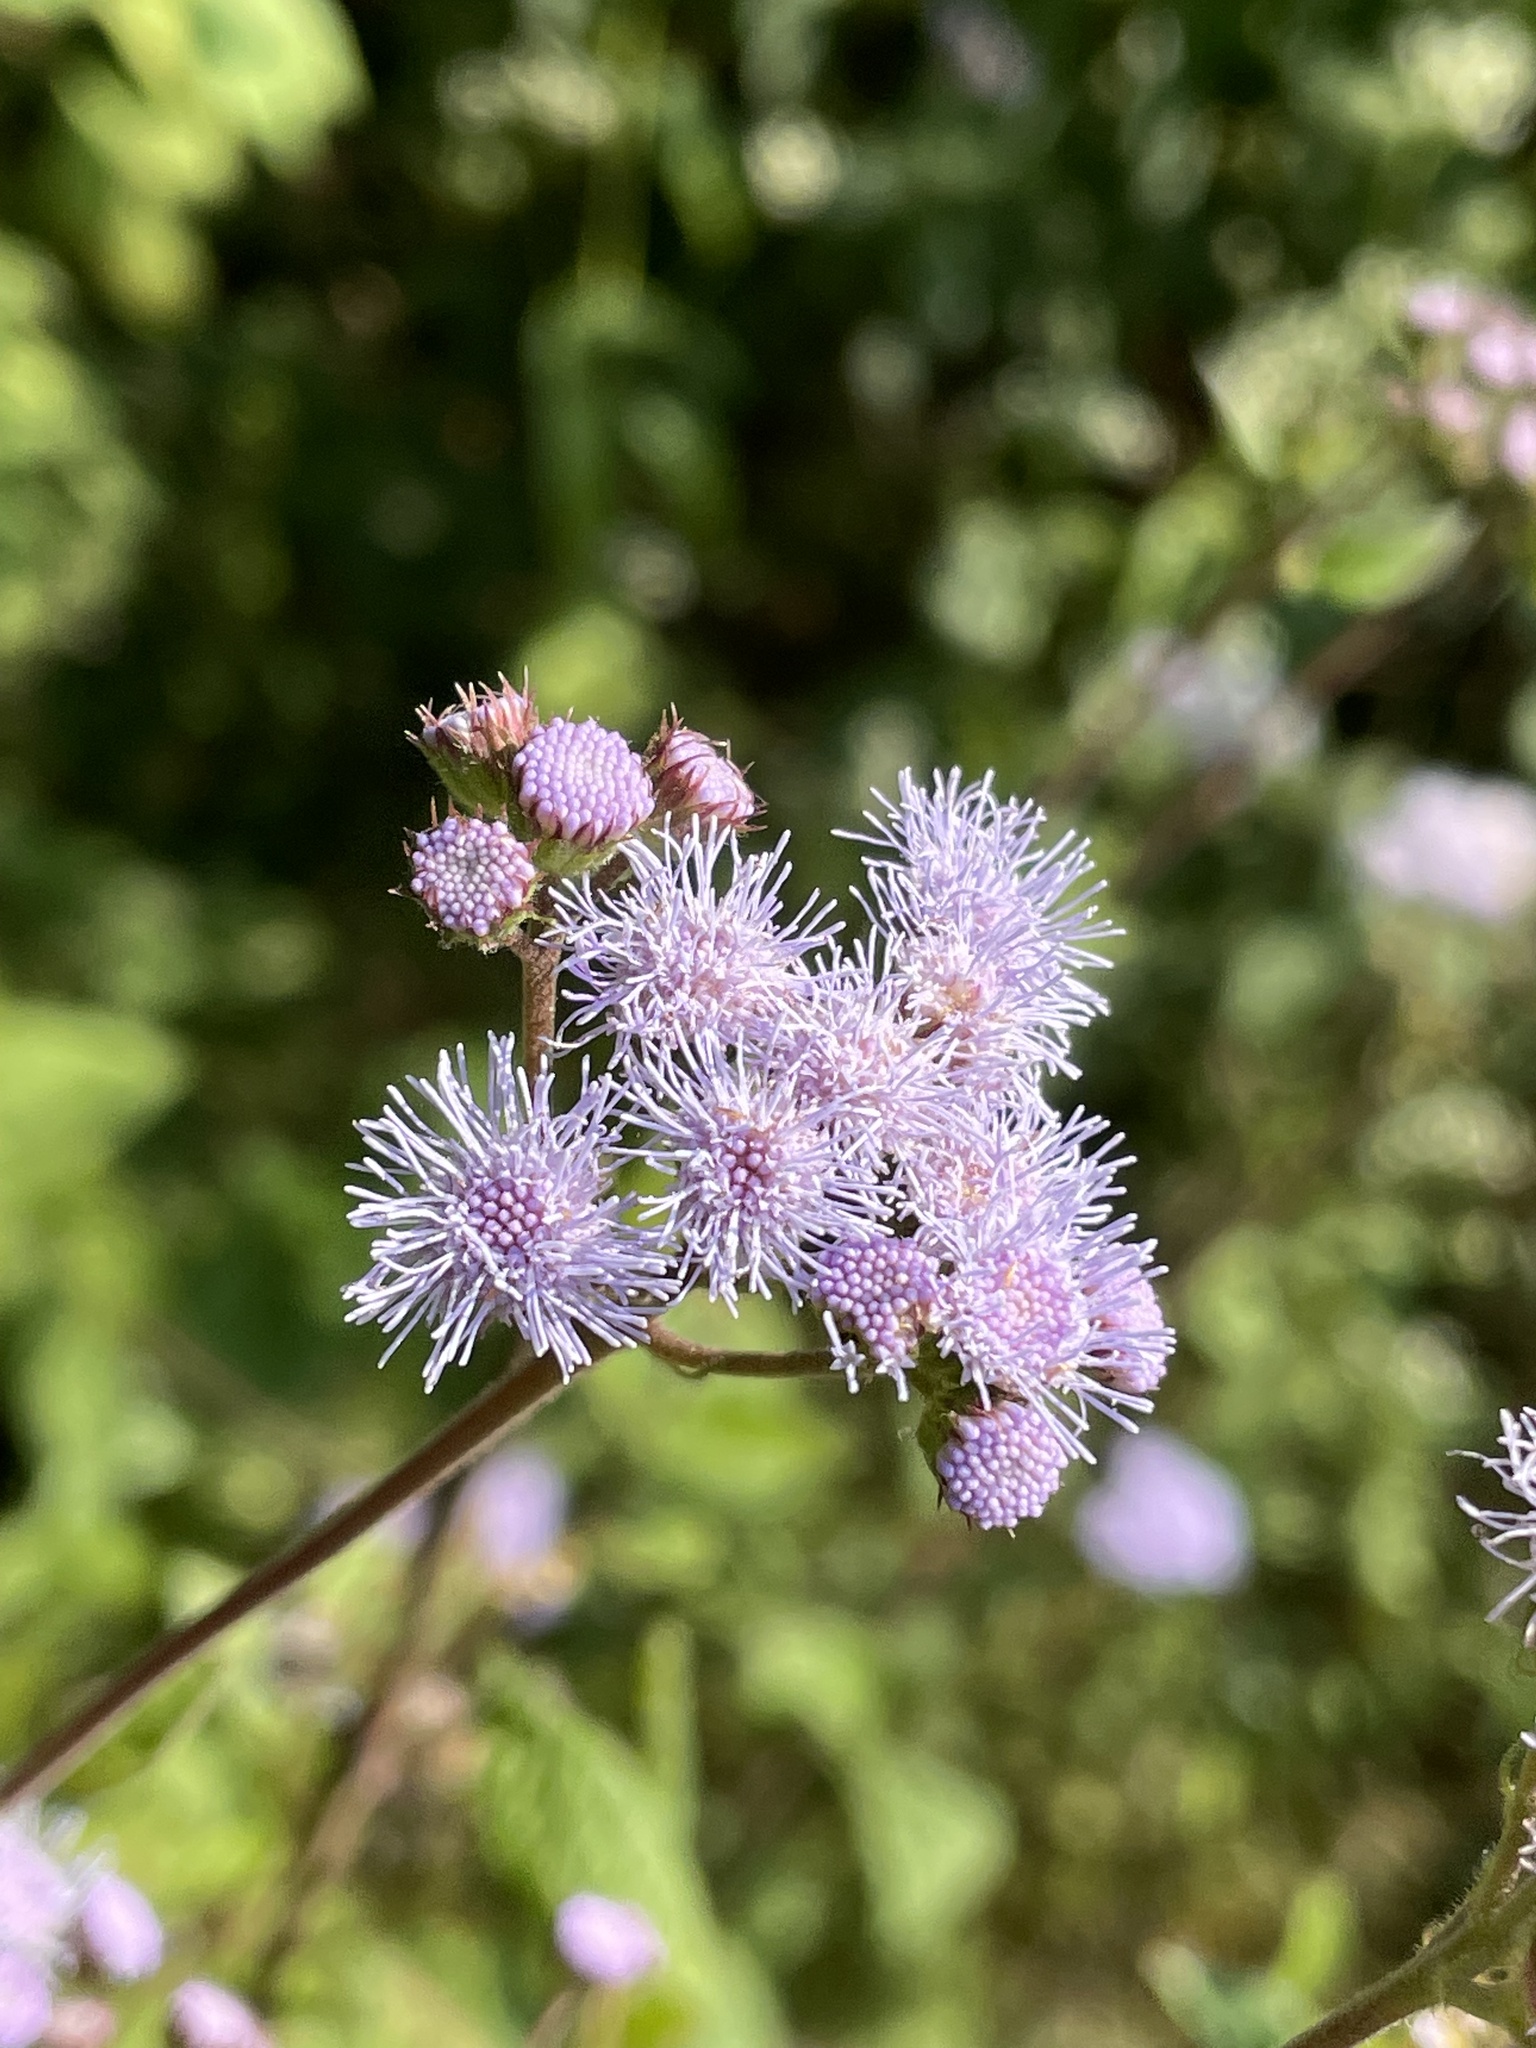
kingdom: Plantae
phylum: Tracheophyta
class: Magnoliopsida
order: Asterales
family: Asteraceae
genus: Ageratum
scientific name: Ageratum corymbosum
